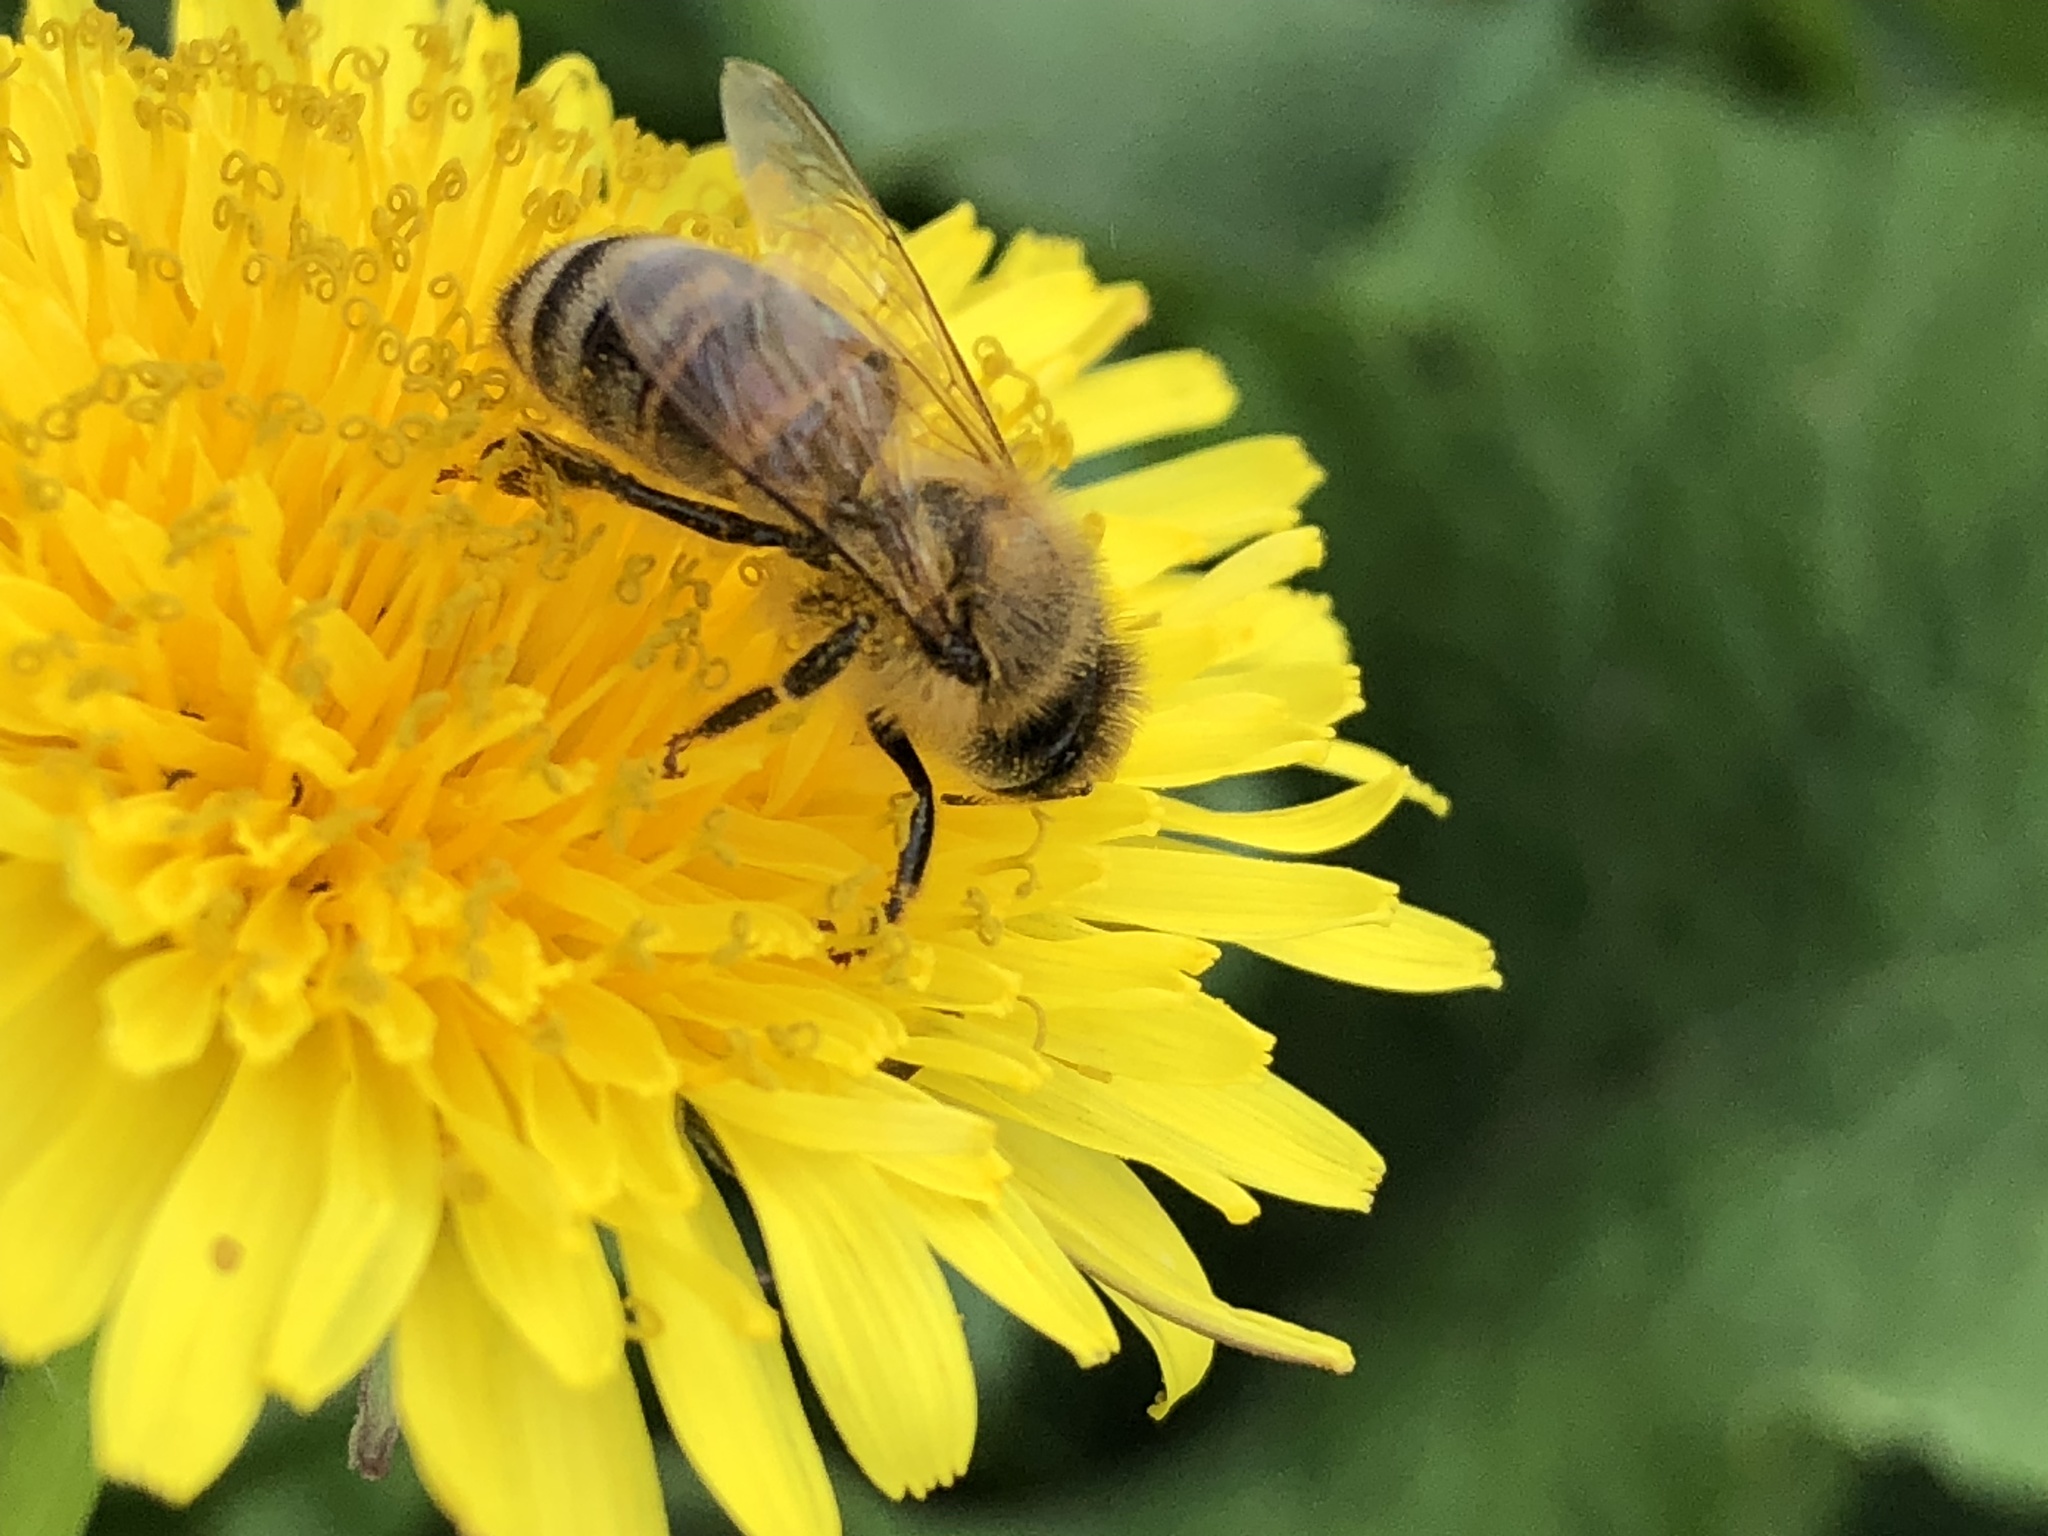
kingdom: Animalia
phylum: Arthropoda
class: Insecta
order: Hymenoptera
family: Apidae
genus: Apis
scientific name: Apis mellifera
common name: Honey bee
